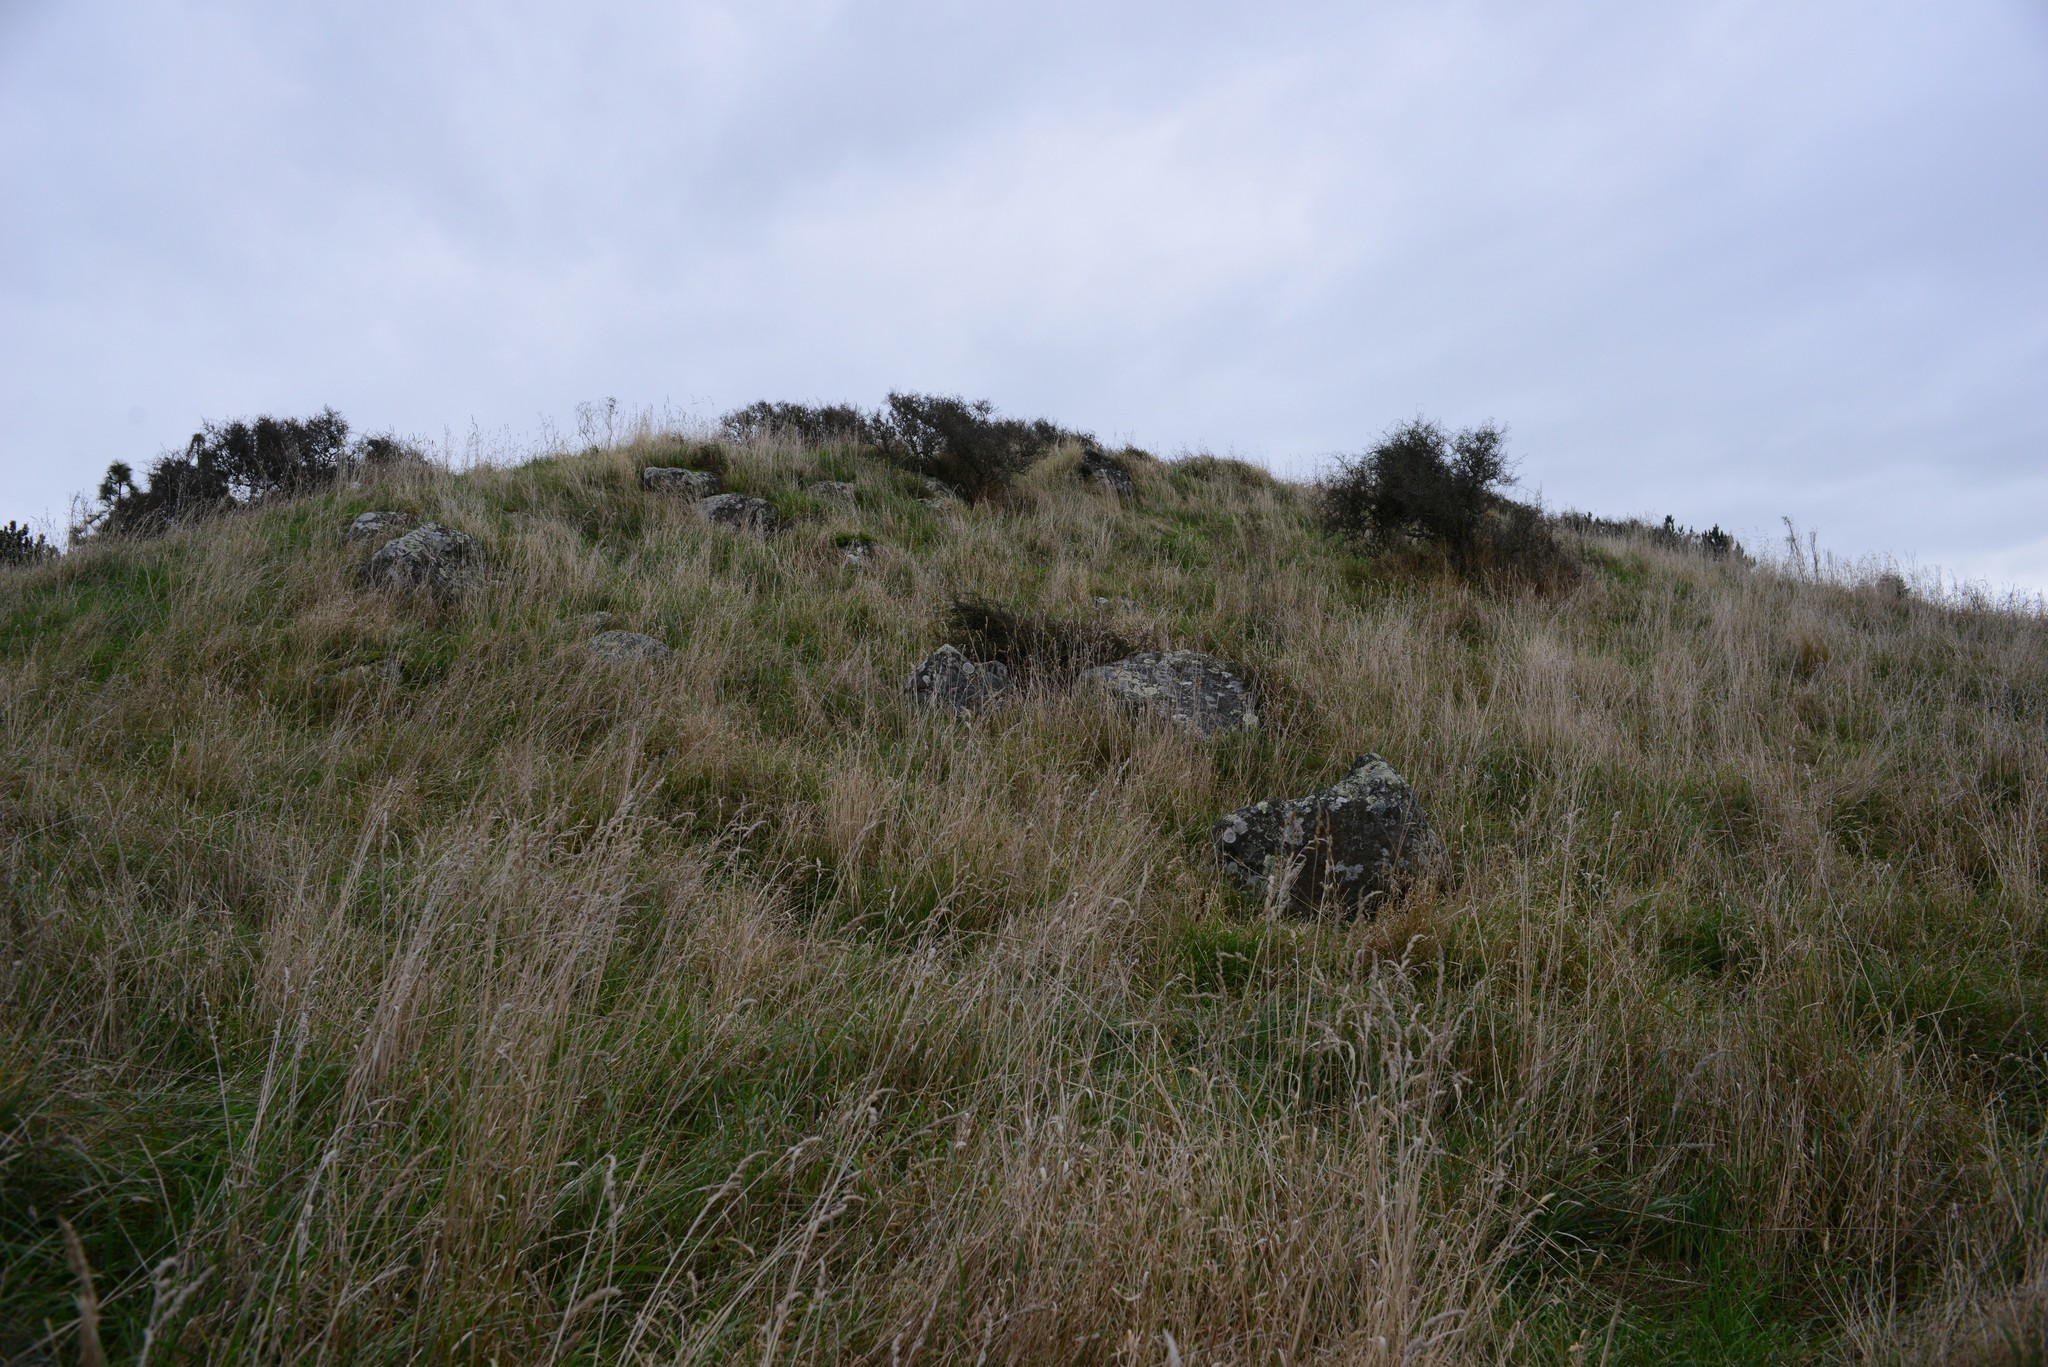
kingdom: Plantae
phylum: Tracheophyta
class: Magnoliopsida
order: Rosales
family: Rhamnaceae
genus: Discaria
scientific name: Discaria toumatou
